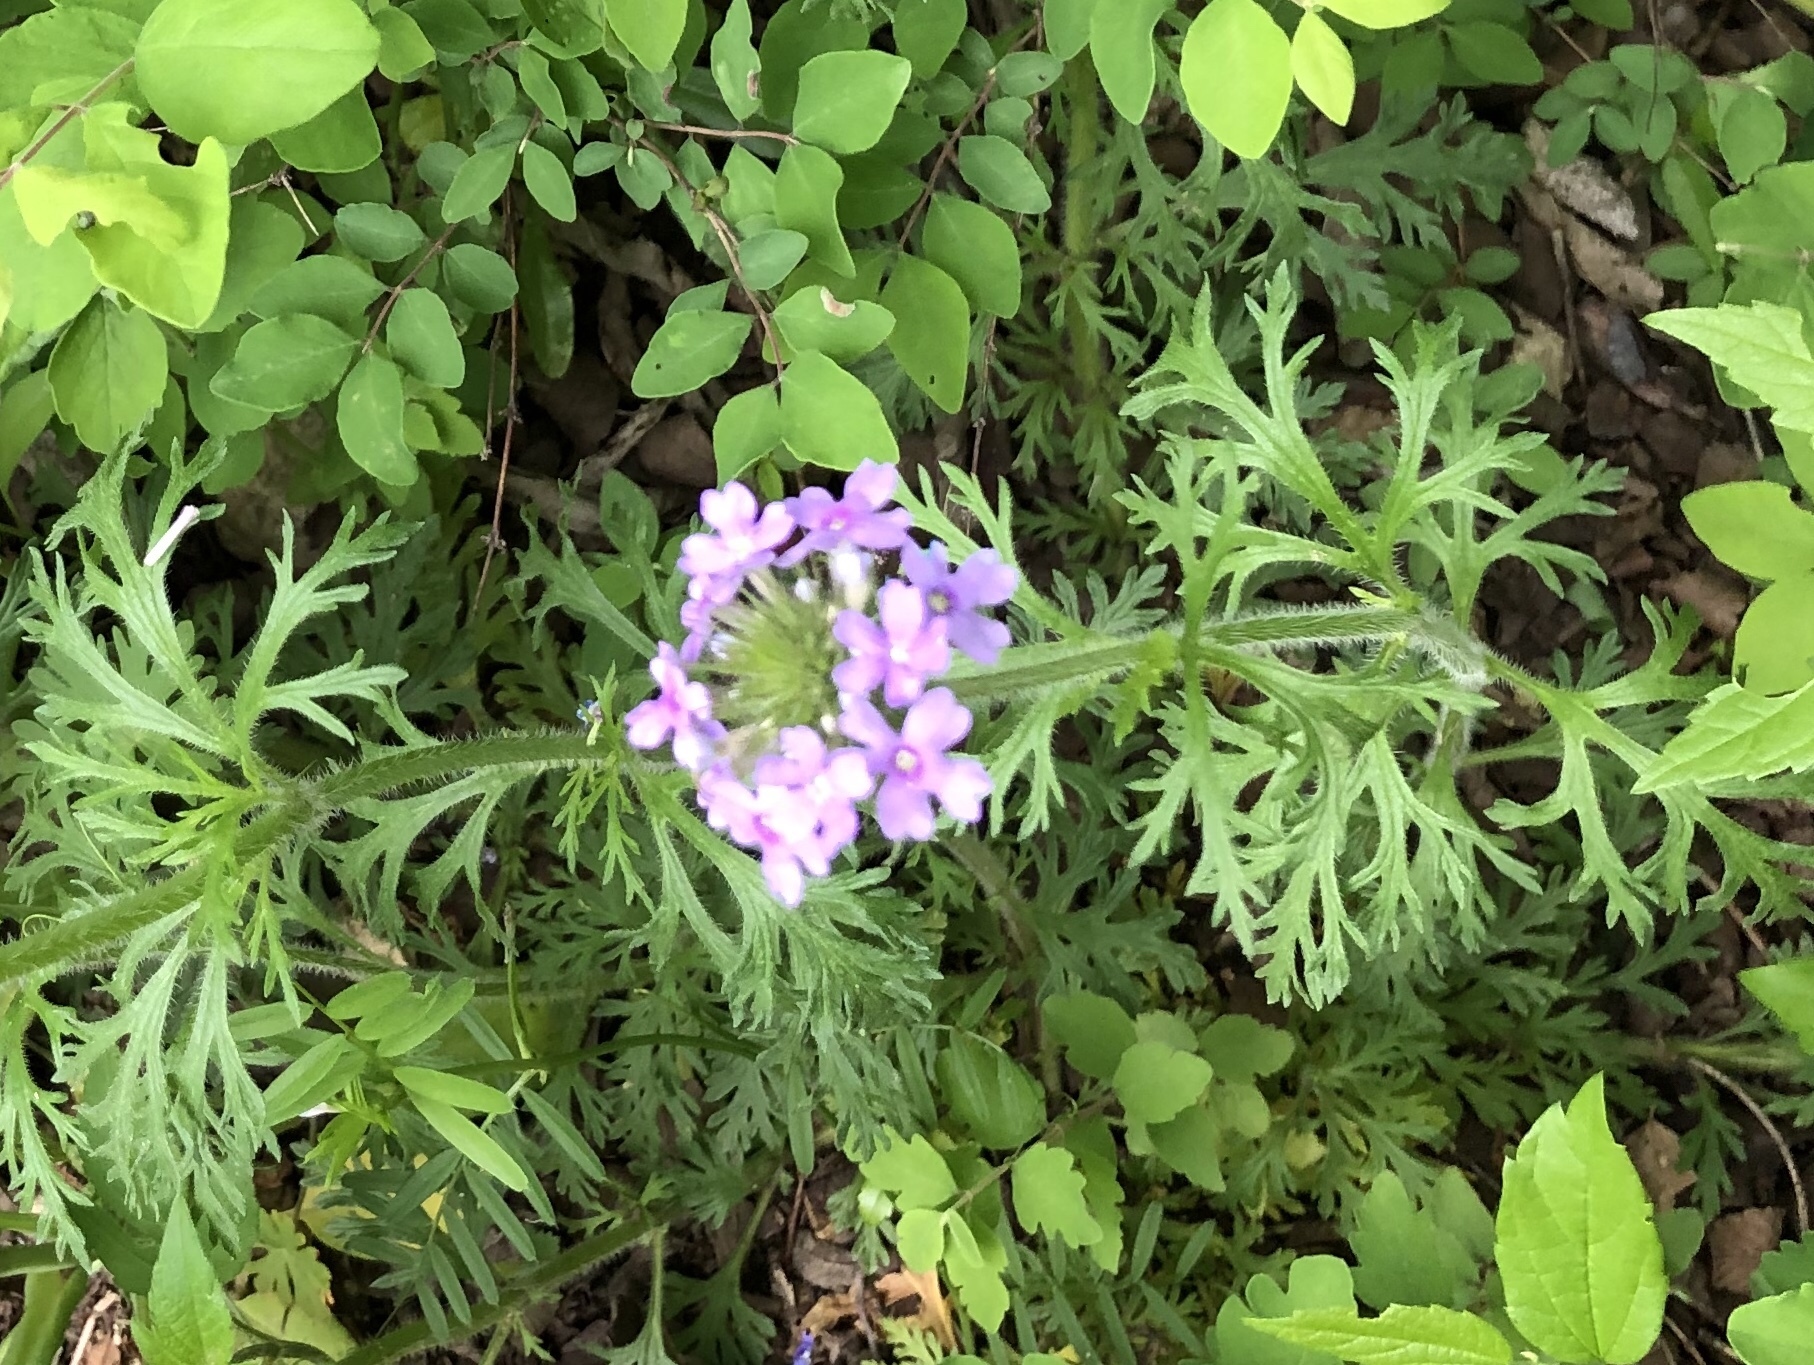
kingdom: Plantae
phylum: Tracheophyta
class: Magnoliopsida
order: Lamiales
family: Verbenaceae
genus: Verbena
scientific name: Verbena bipinnatifida
